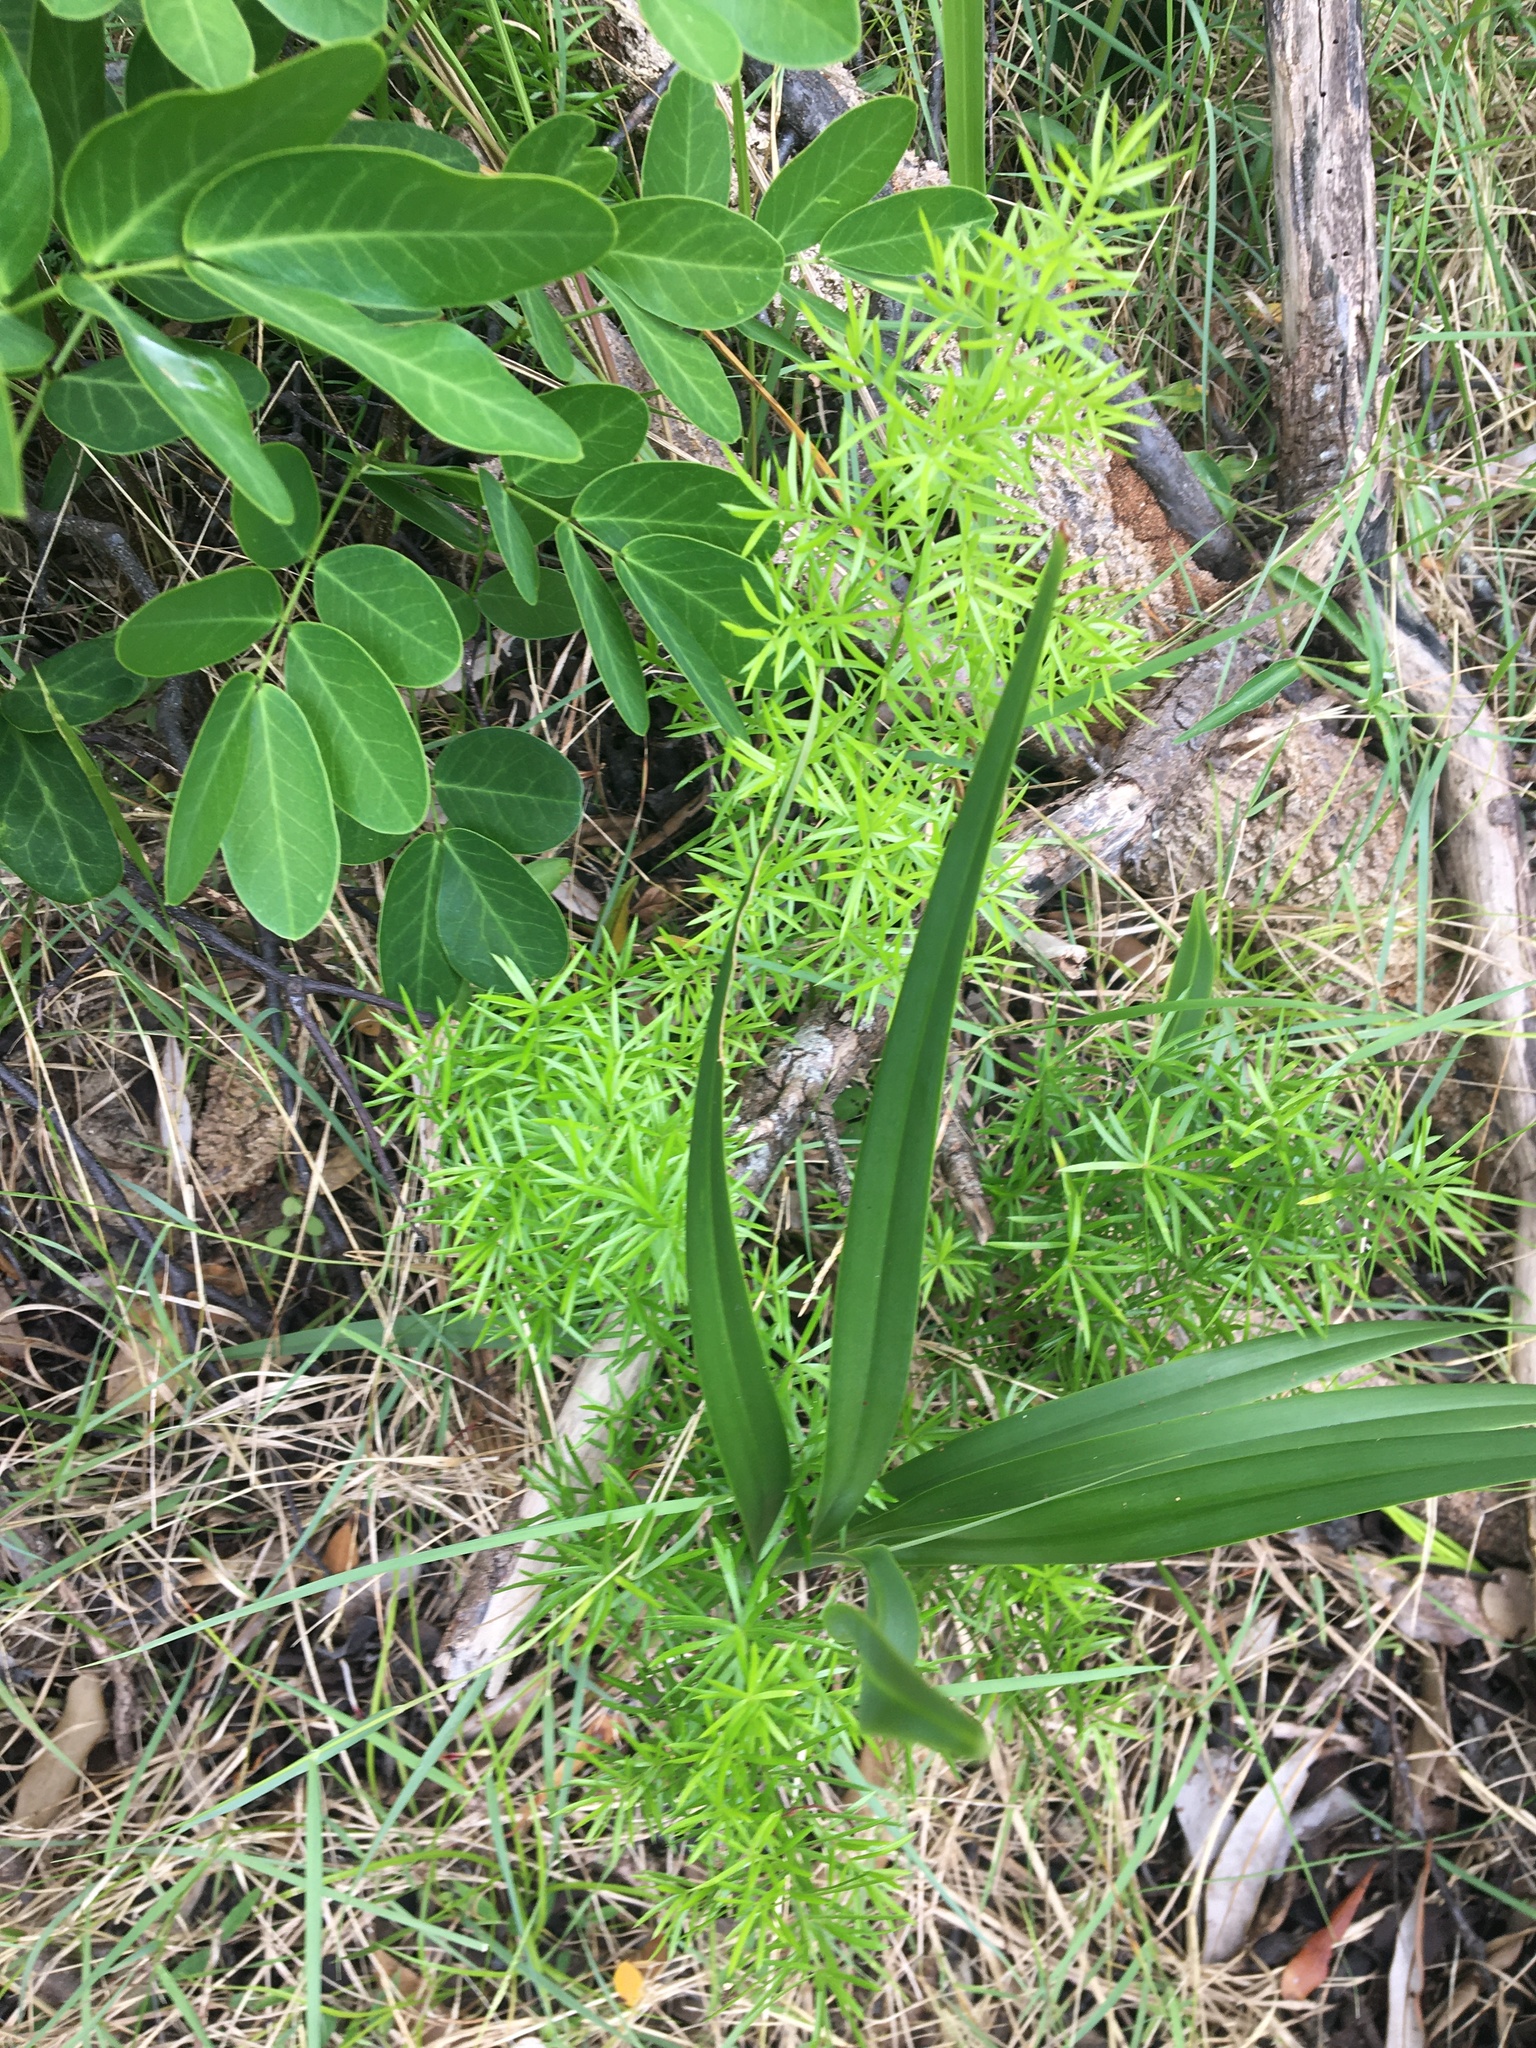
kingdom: Plantae
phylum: Tracheophyta
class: Liliopsida
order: Asparagales
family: Asparagaceae
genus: Asparagus
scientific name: Asparagus aethiopicus
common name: Sprenger's asparagus fern
